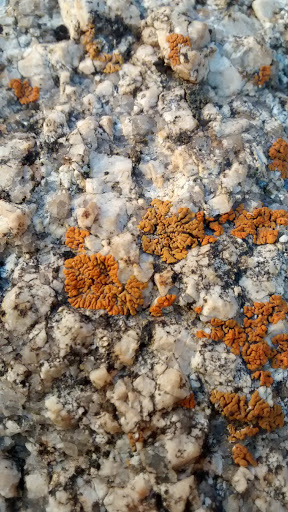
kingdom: Fungi
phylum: Ascomycota
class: Lecanoromycetes
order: Teloschistales
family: Teloschistaceae
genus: Xanthoria
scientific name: Xanthoria elegans
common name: Elegant sunburst lichen
